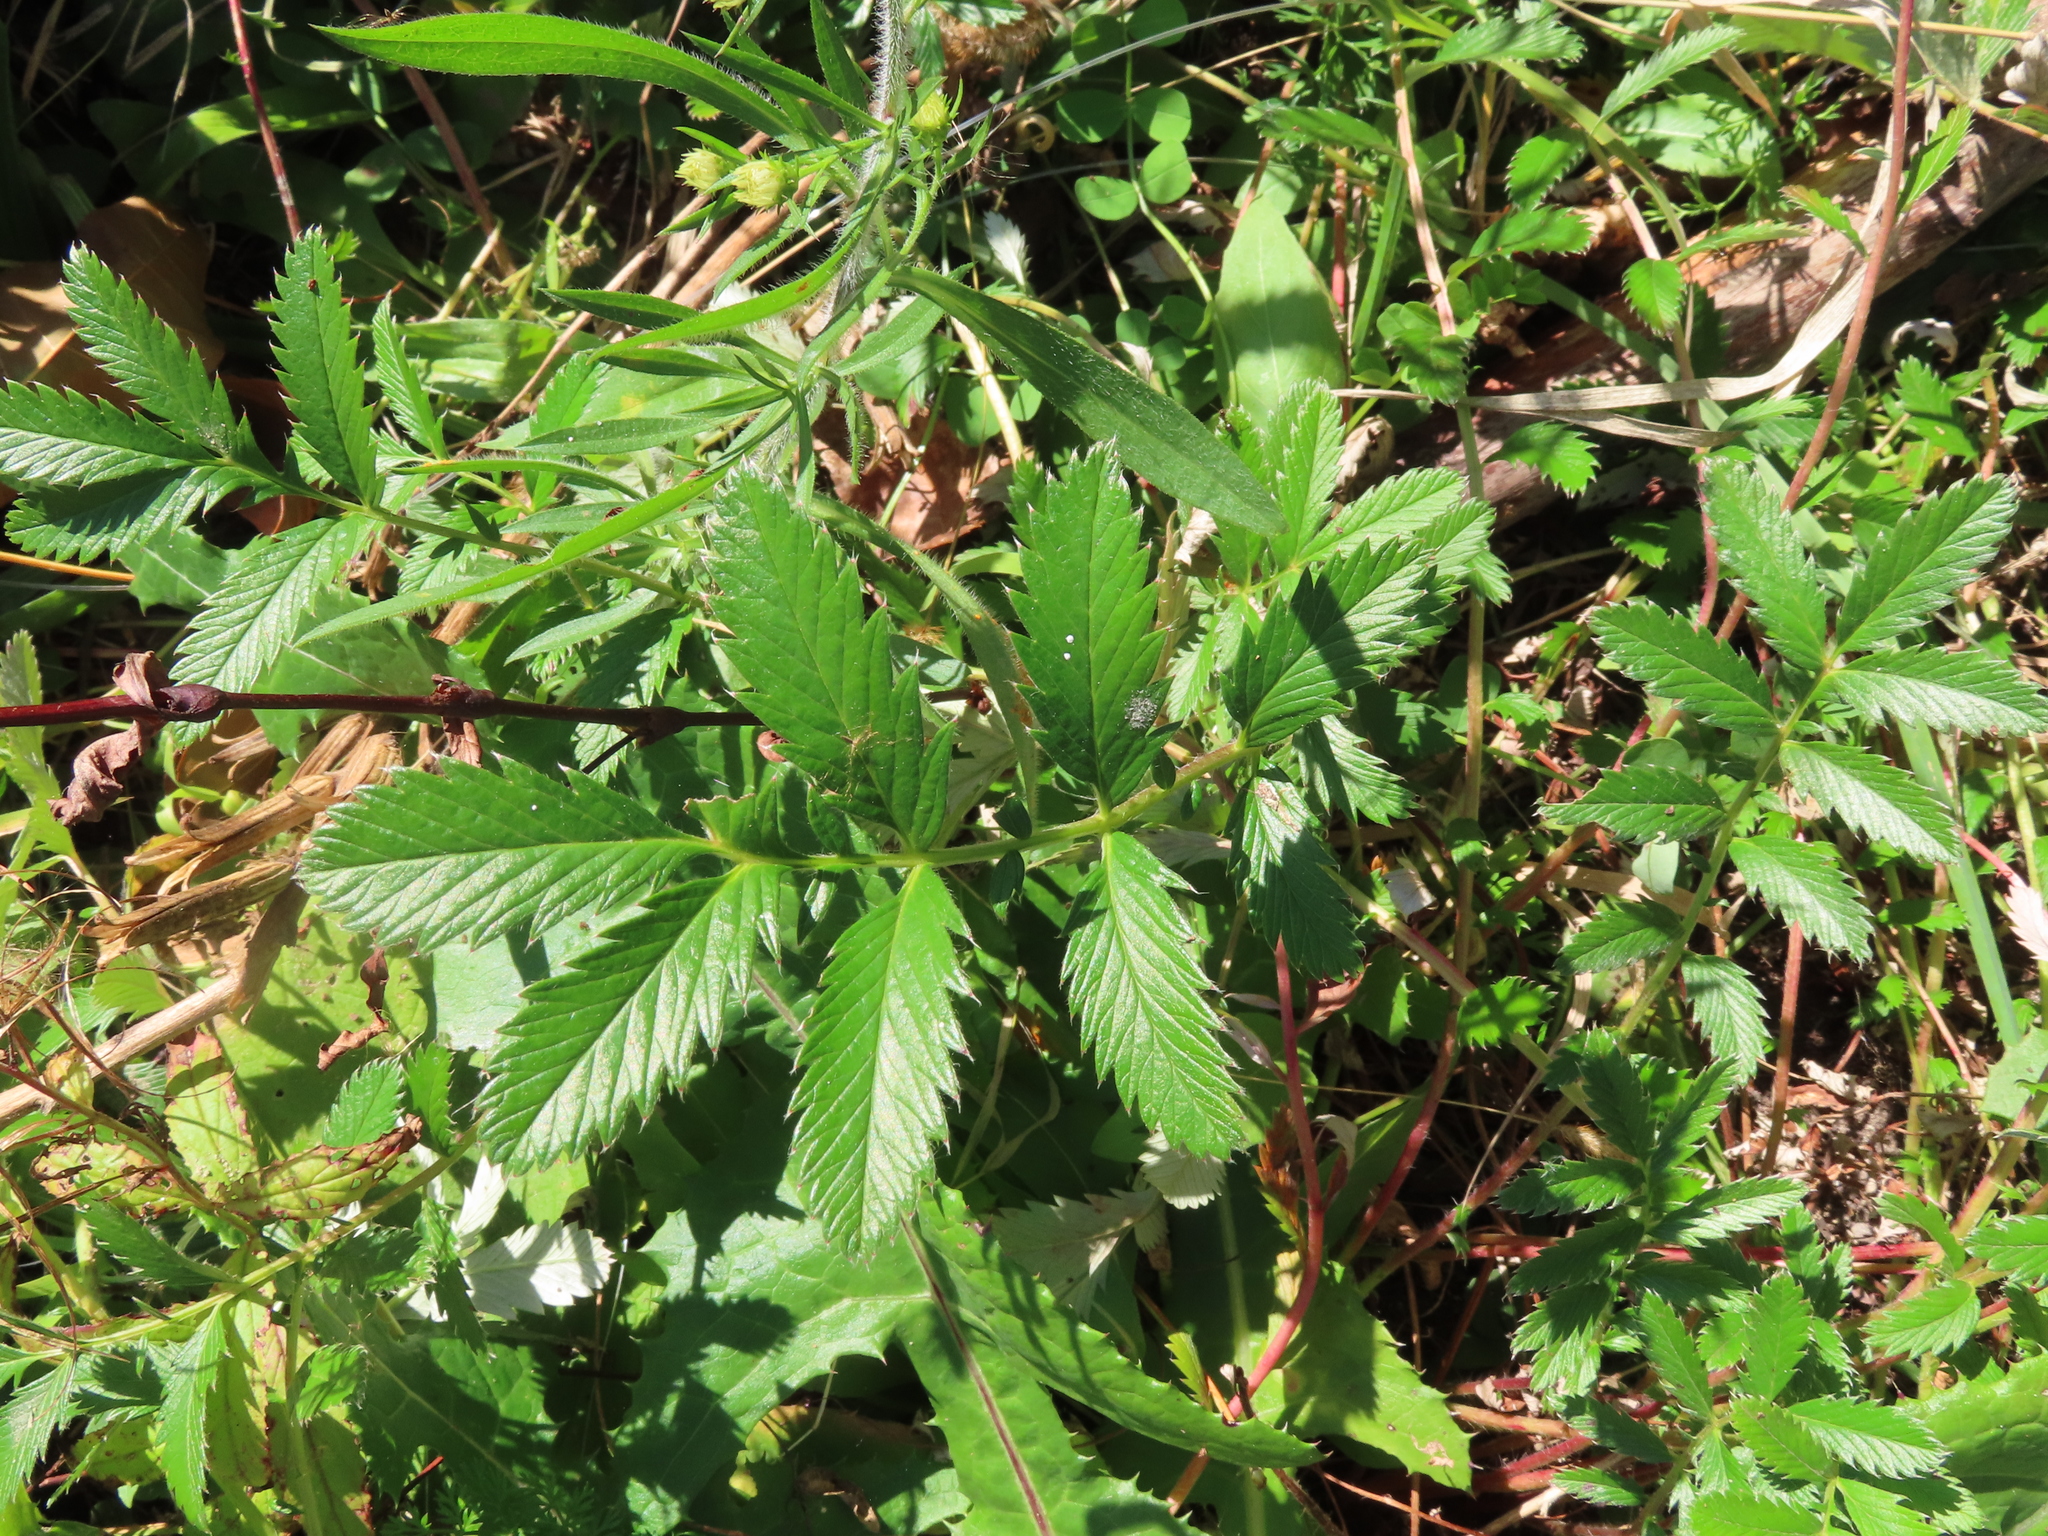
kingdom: Plantae
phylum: Tracheophyta
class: Magnoliopsida
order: Rosales
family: Rosaceae
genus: Argentina
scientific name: Argentina anserina
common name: Common silverweed
